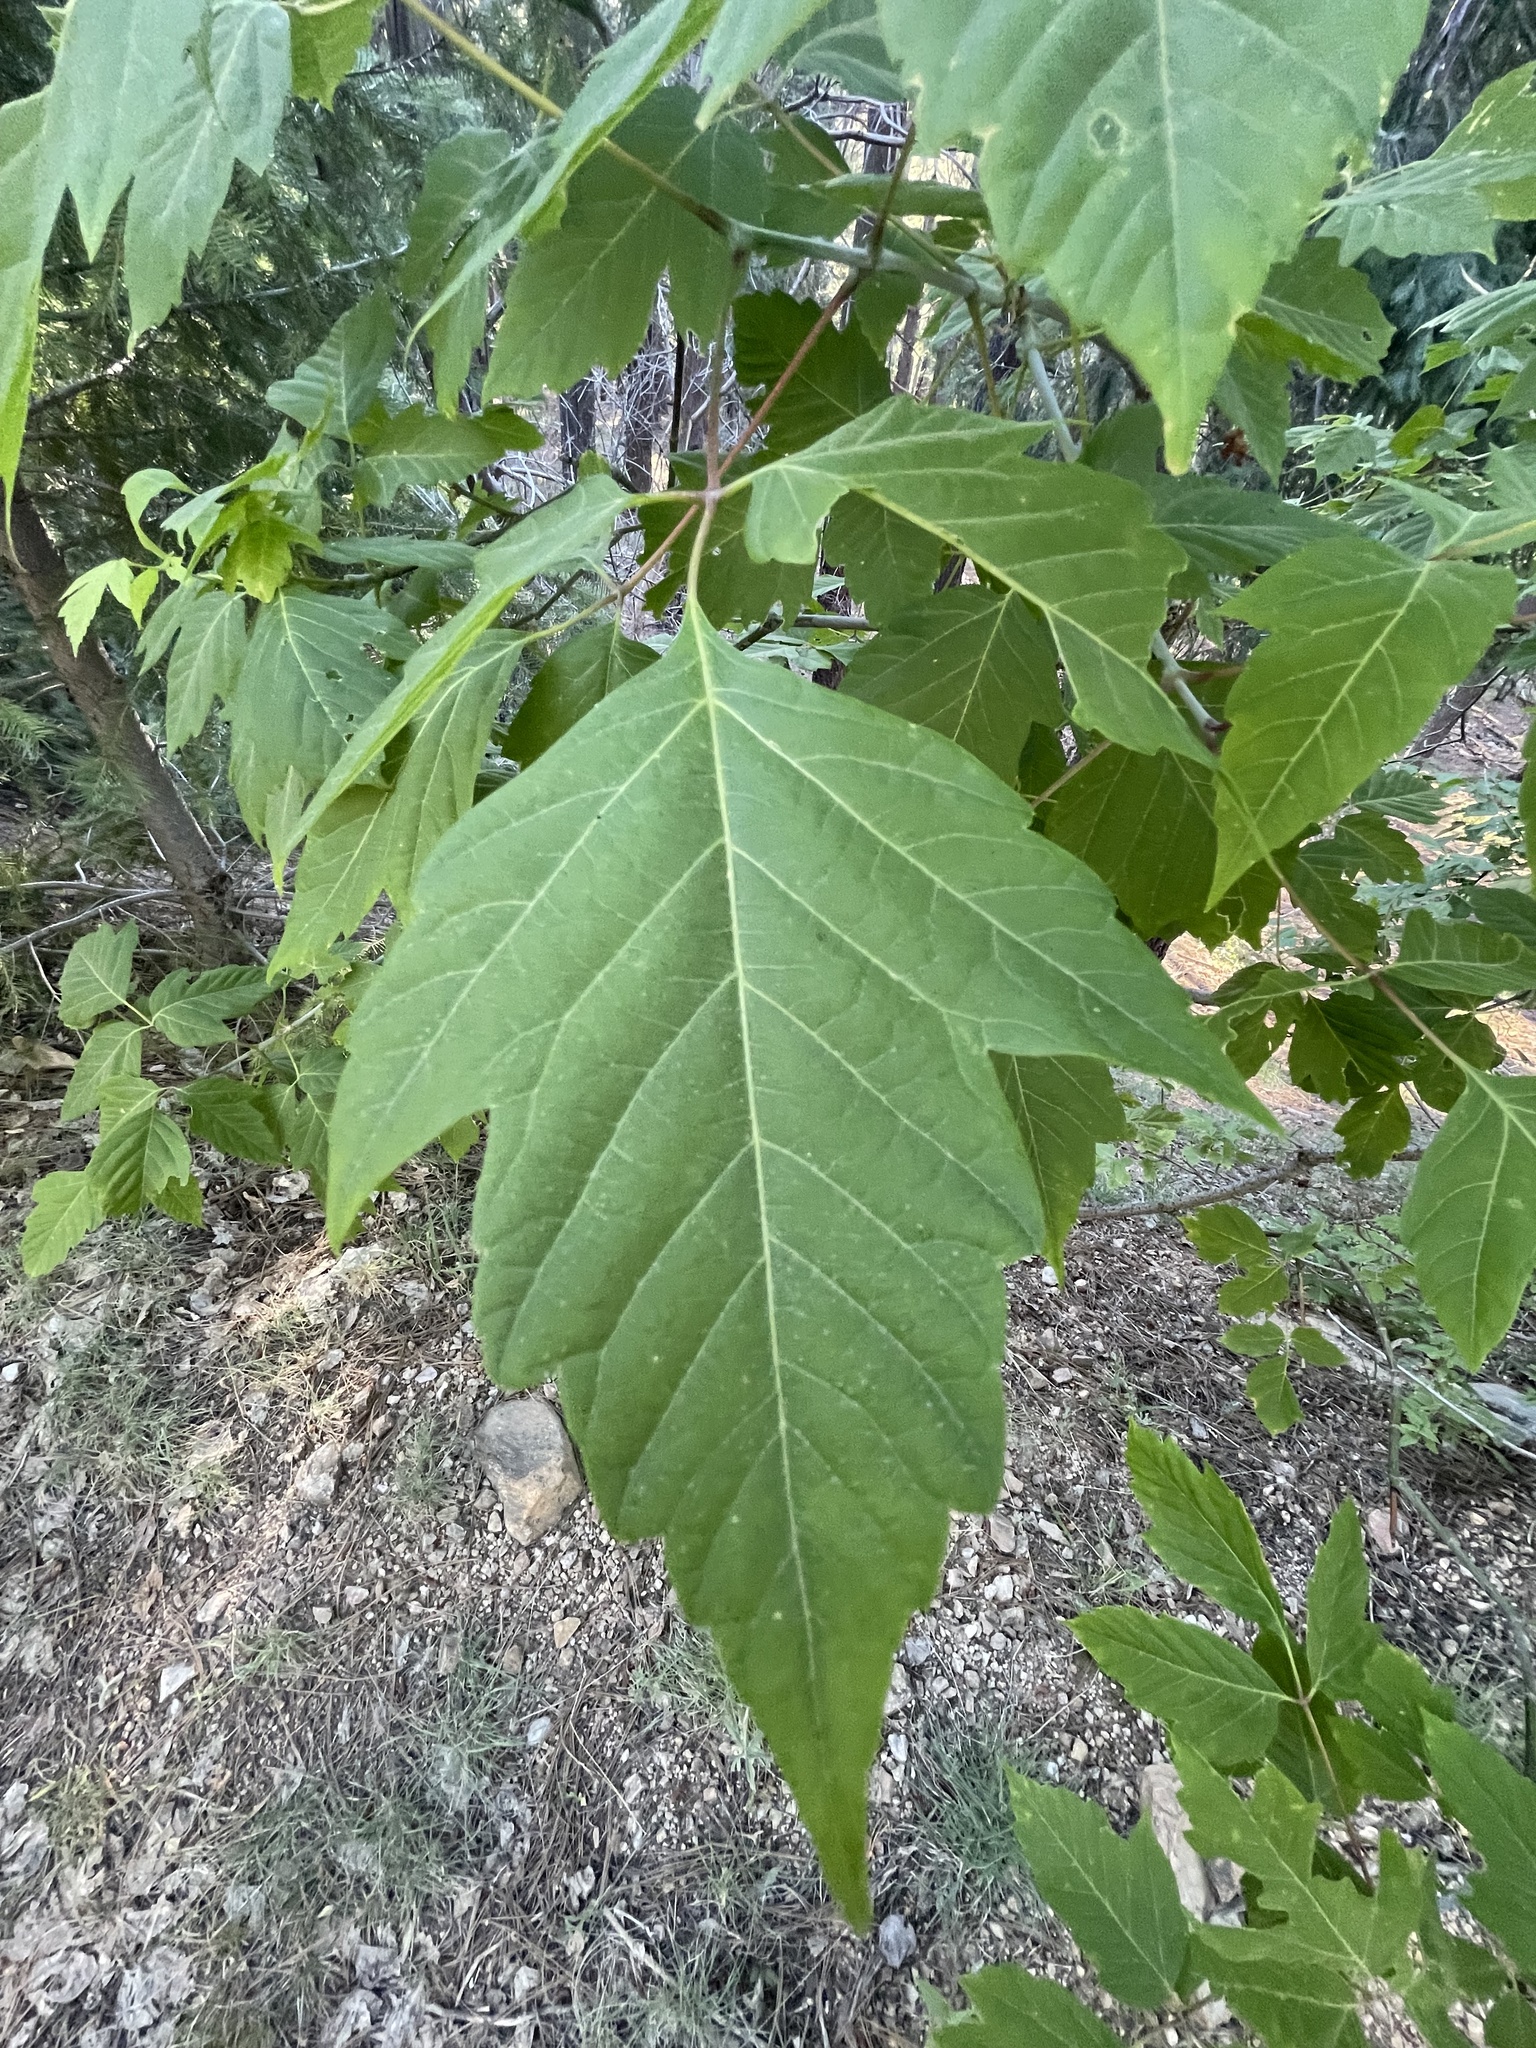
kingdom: Plantae
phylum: Tracheophyta
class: Magnoliopsida
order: Sapindales
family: Sapindaceae
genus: Acer
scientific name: Acer negundo
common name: Ashleaf maple
